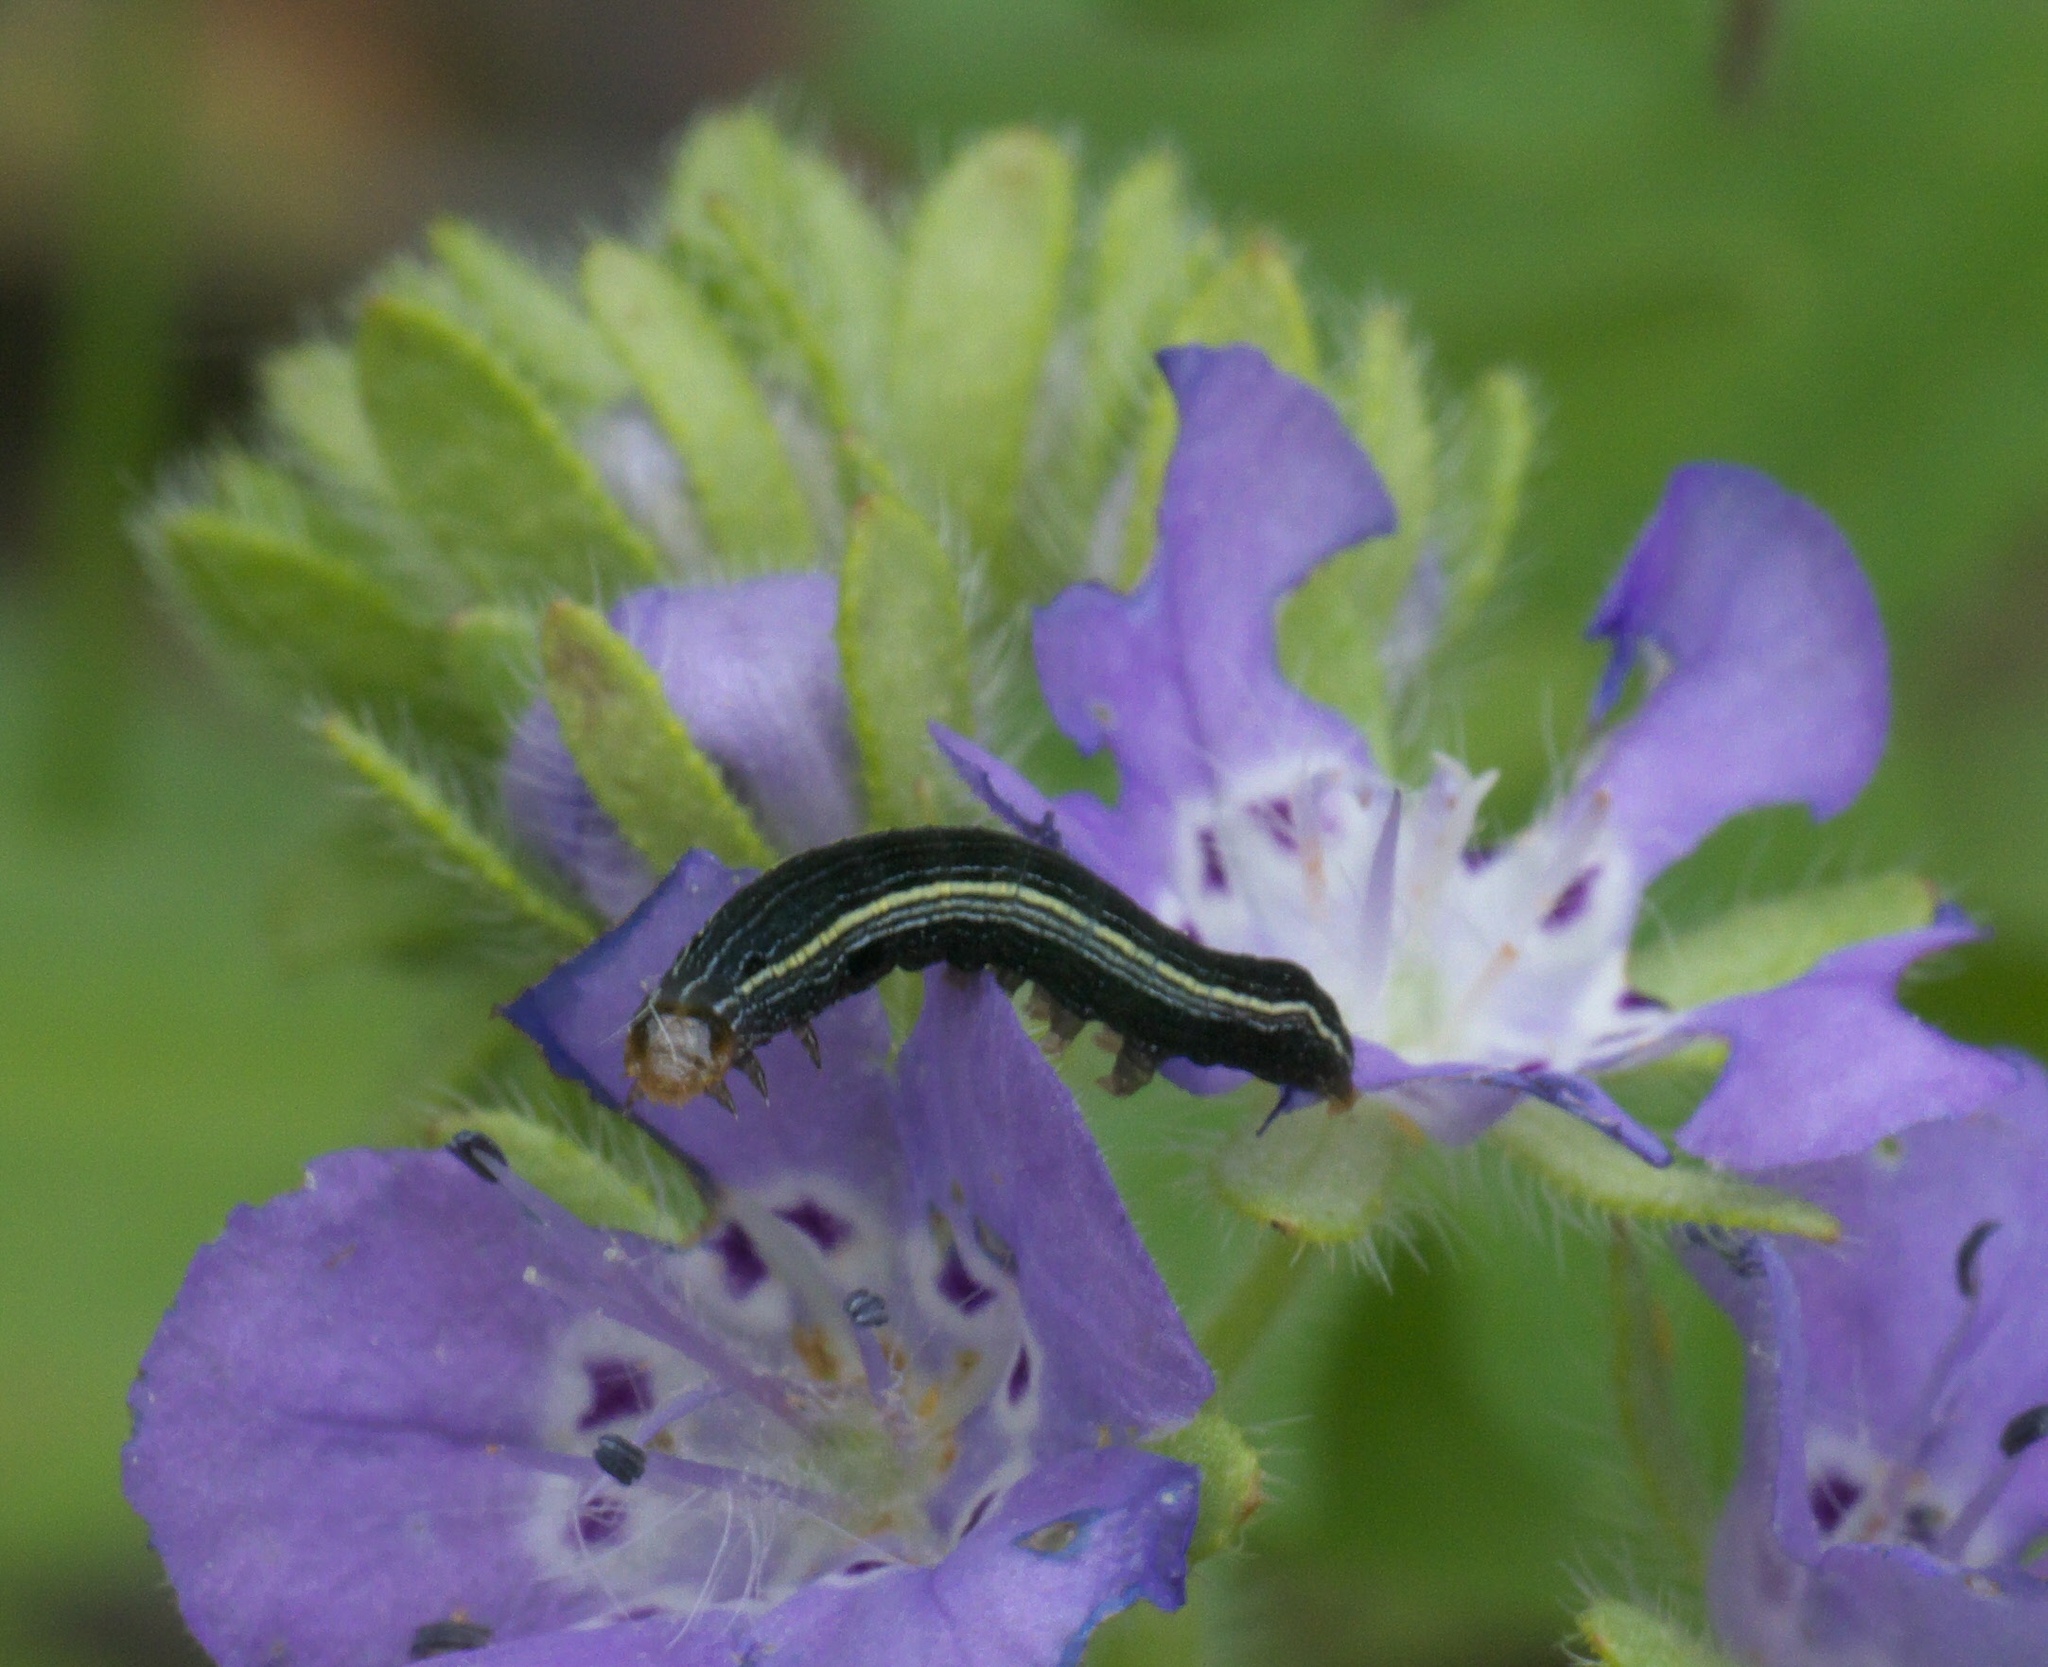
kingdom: Animalia
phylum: Arthropoda
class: Insecta
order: Lepidoptera
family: Noctuidae
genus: Spodoptera
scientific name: Spodoptera ornithogalli
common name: Yellow-striped armyworm
